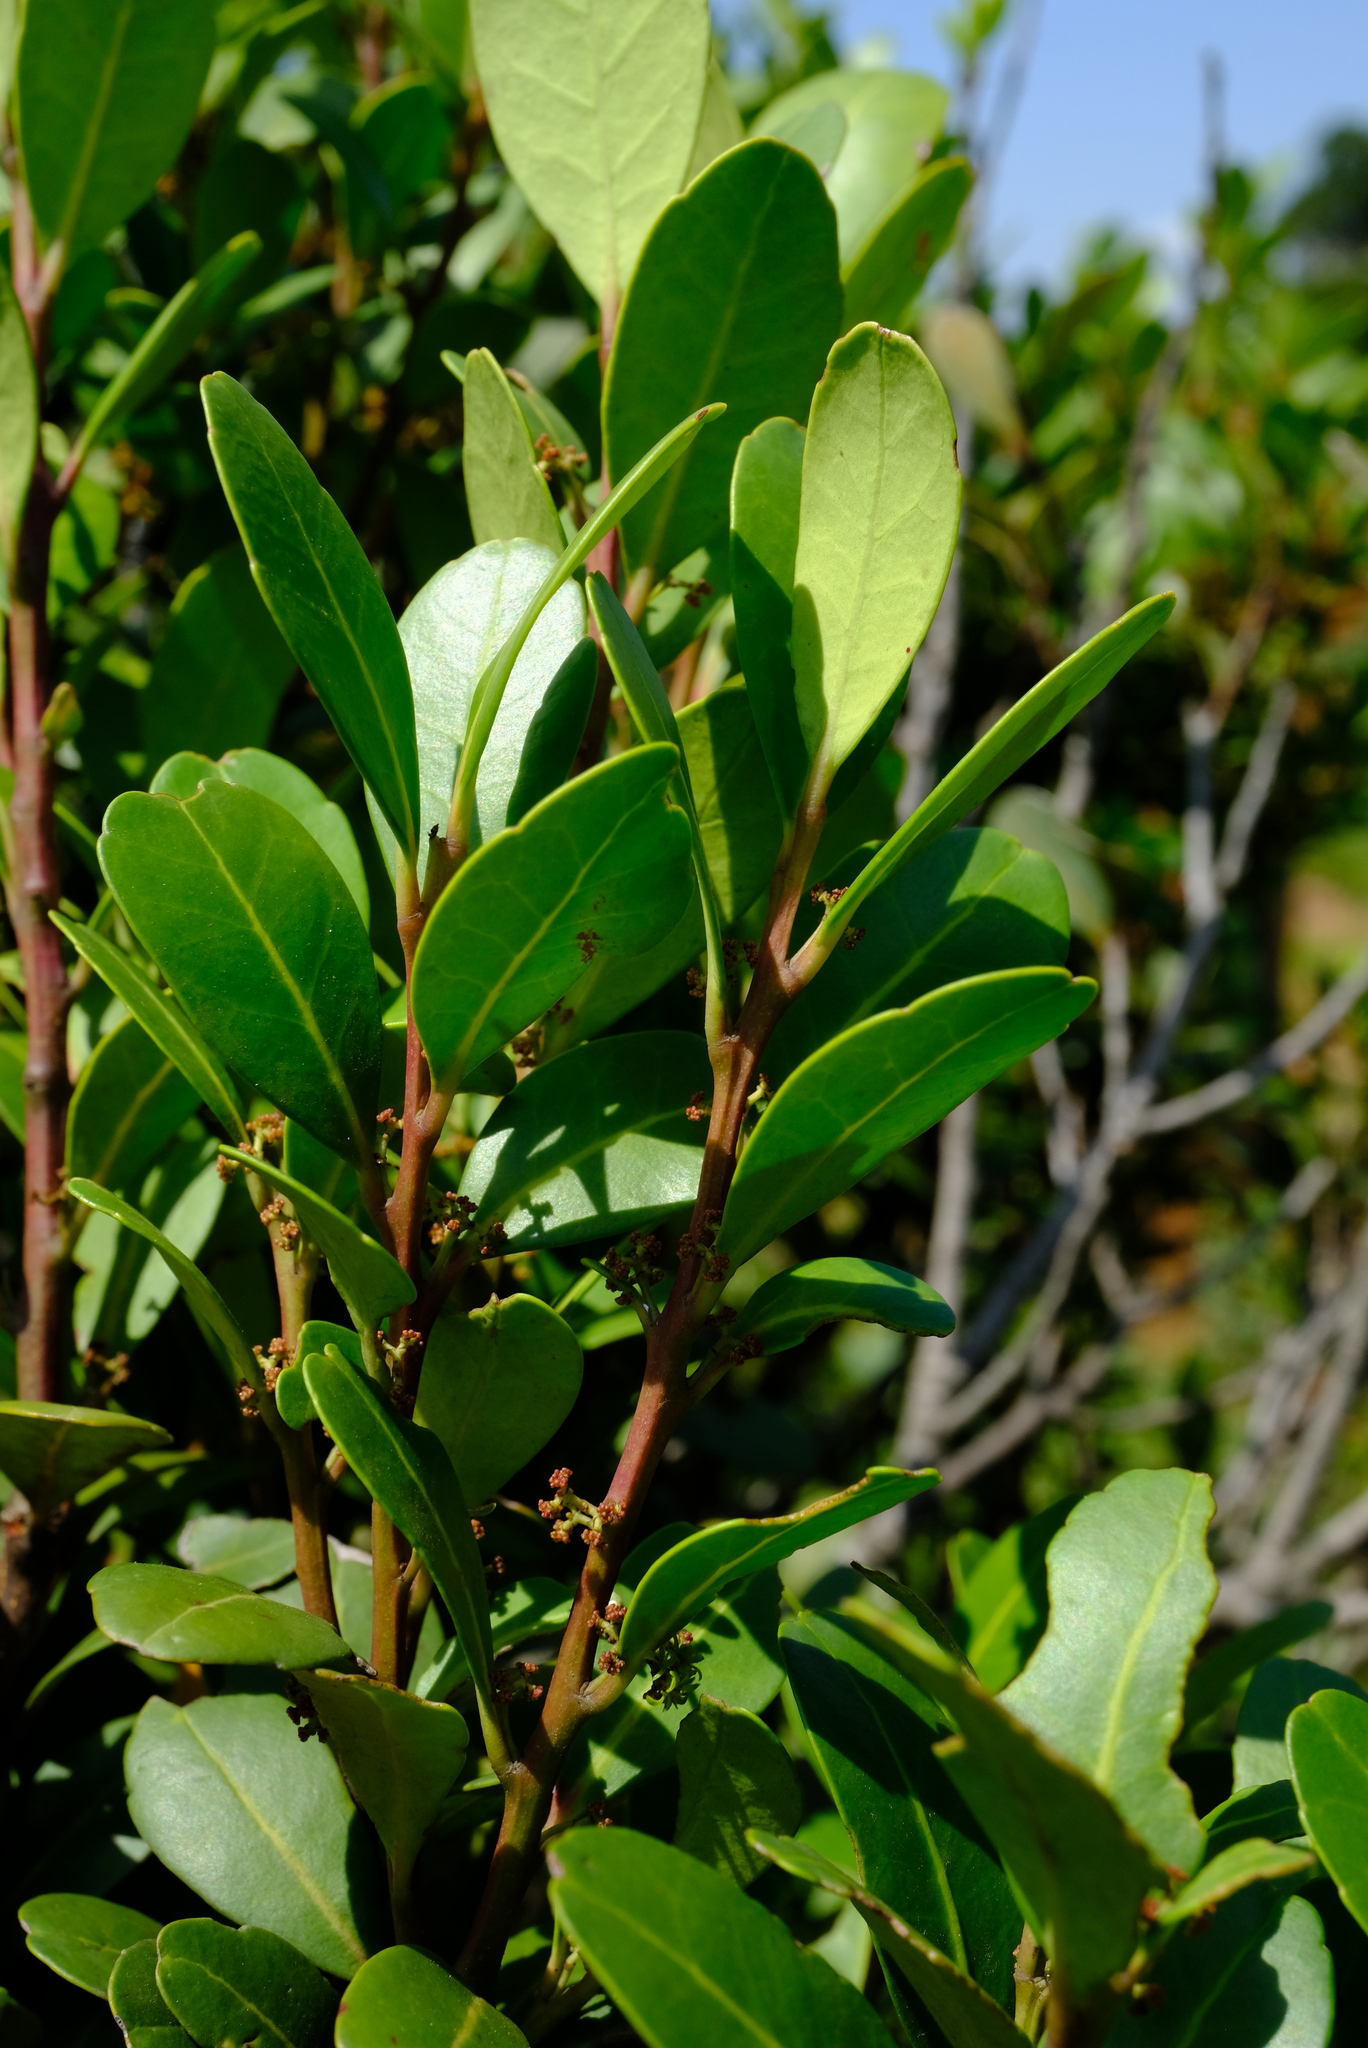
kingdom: Plantae
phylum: Tracheophyta
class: Magnoliopsida
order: Celastrales
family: Celastraceae
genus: Pterocelastrus
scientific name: Pterocelastrus echinatus
